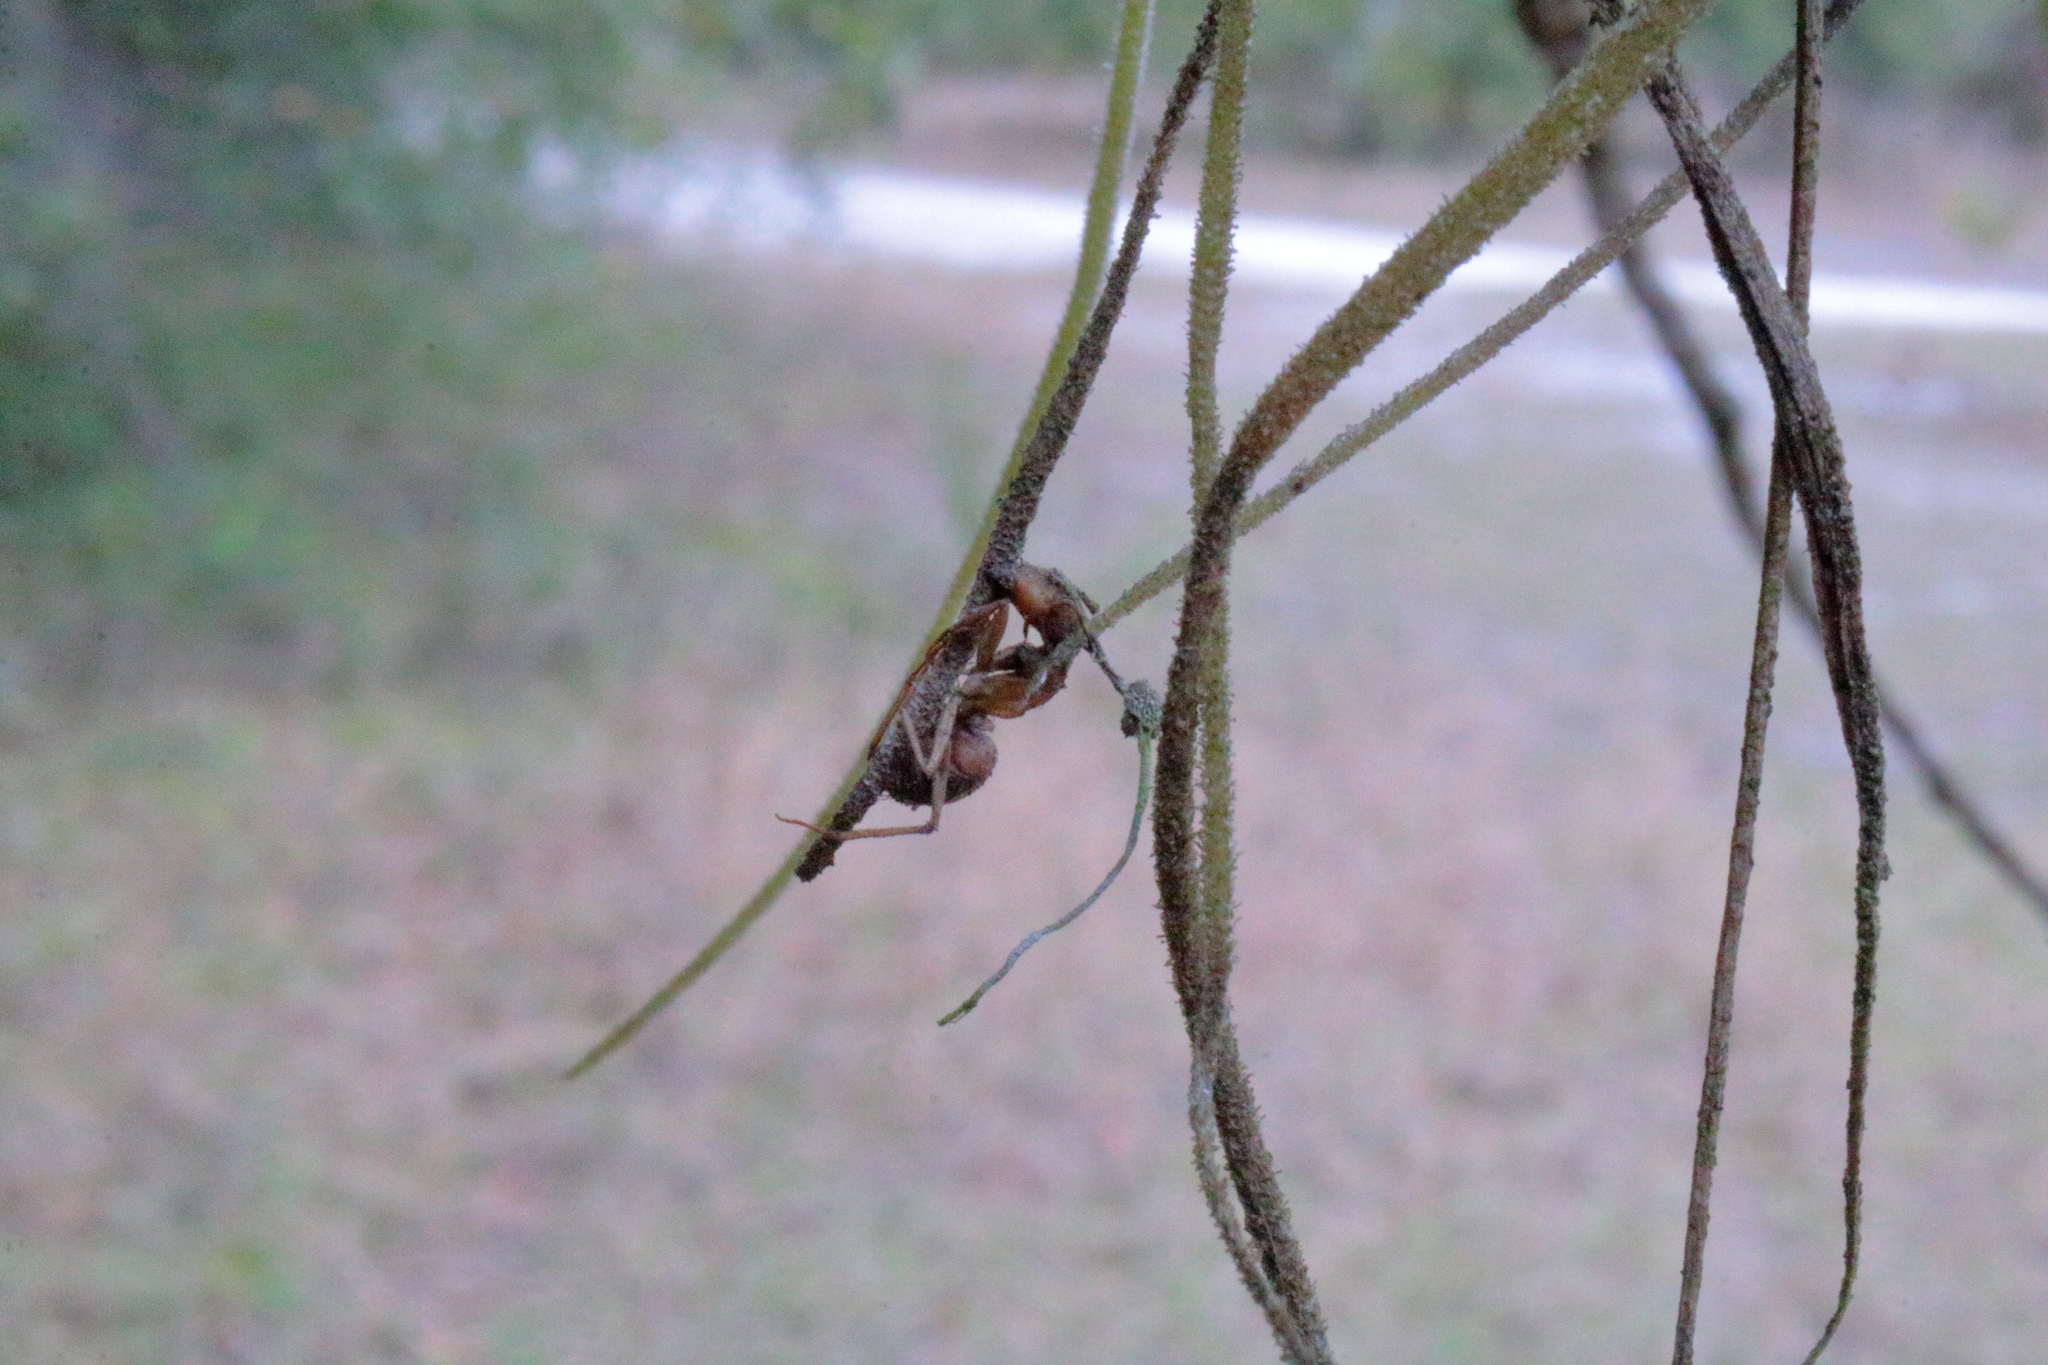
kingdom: Fungi
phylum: Ascomycota
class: Sordariomycetes
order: Hypocreales
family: Ophiocordycipitaceae
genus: Ophiocordyceps
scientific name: Ophiocordyceps camponoti-floridani
